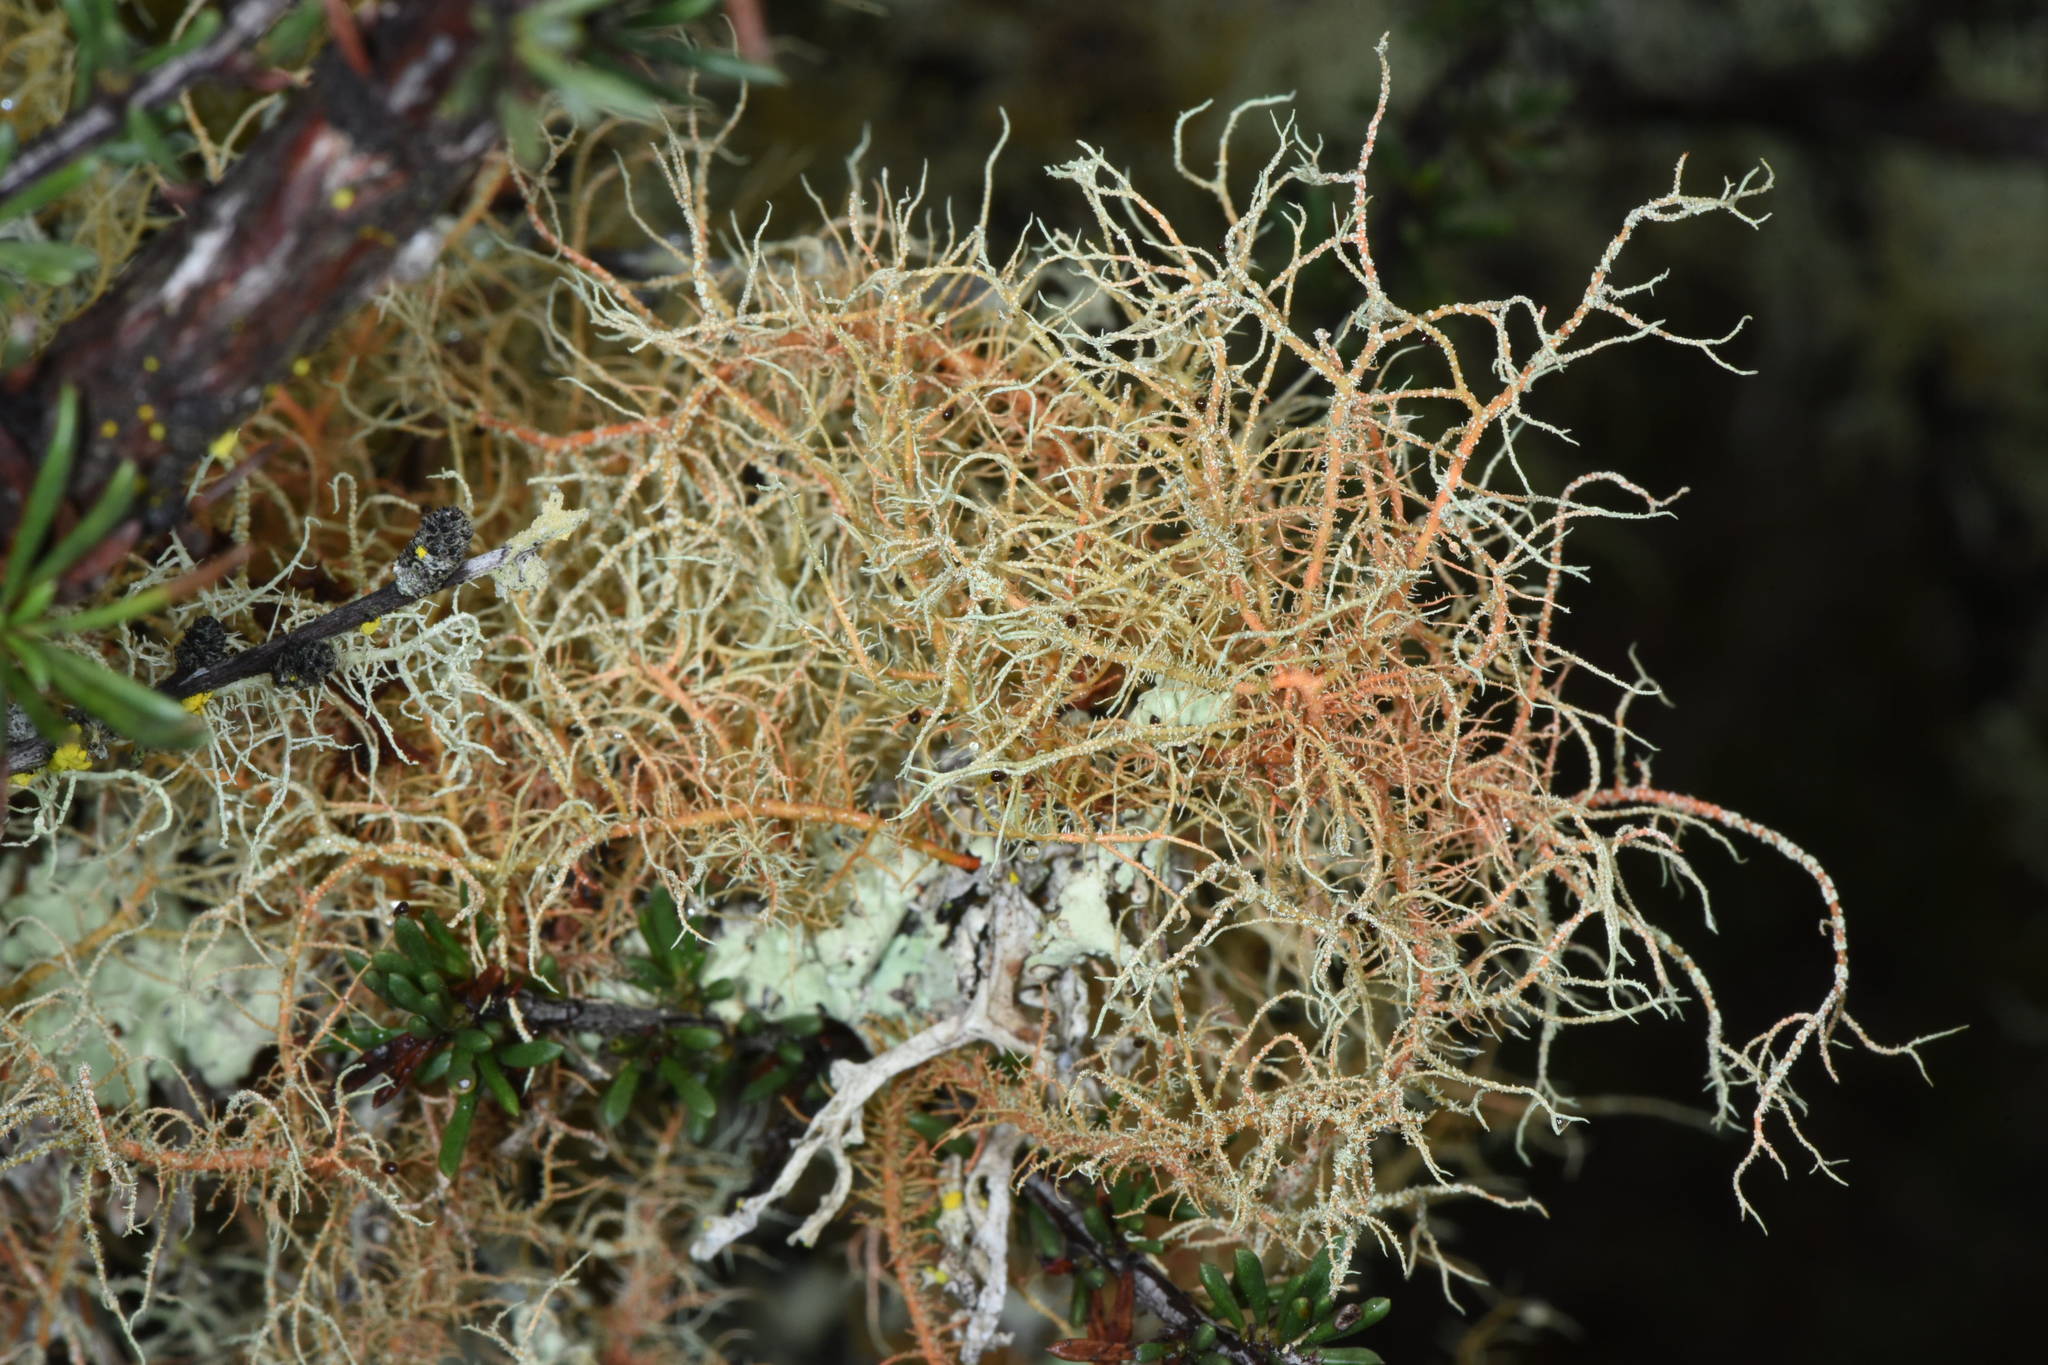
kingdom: Fungi
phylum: Ascomycota
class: Lecanoromycetes
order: Lecanorales
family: Parmeliaceae
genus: Usnea
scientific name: Usnea rubicunda
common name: Red beard lichen
